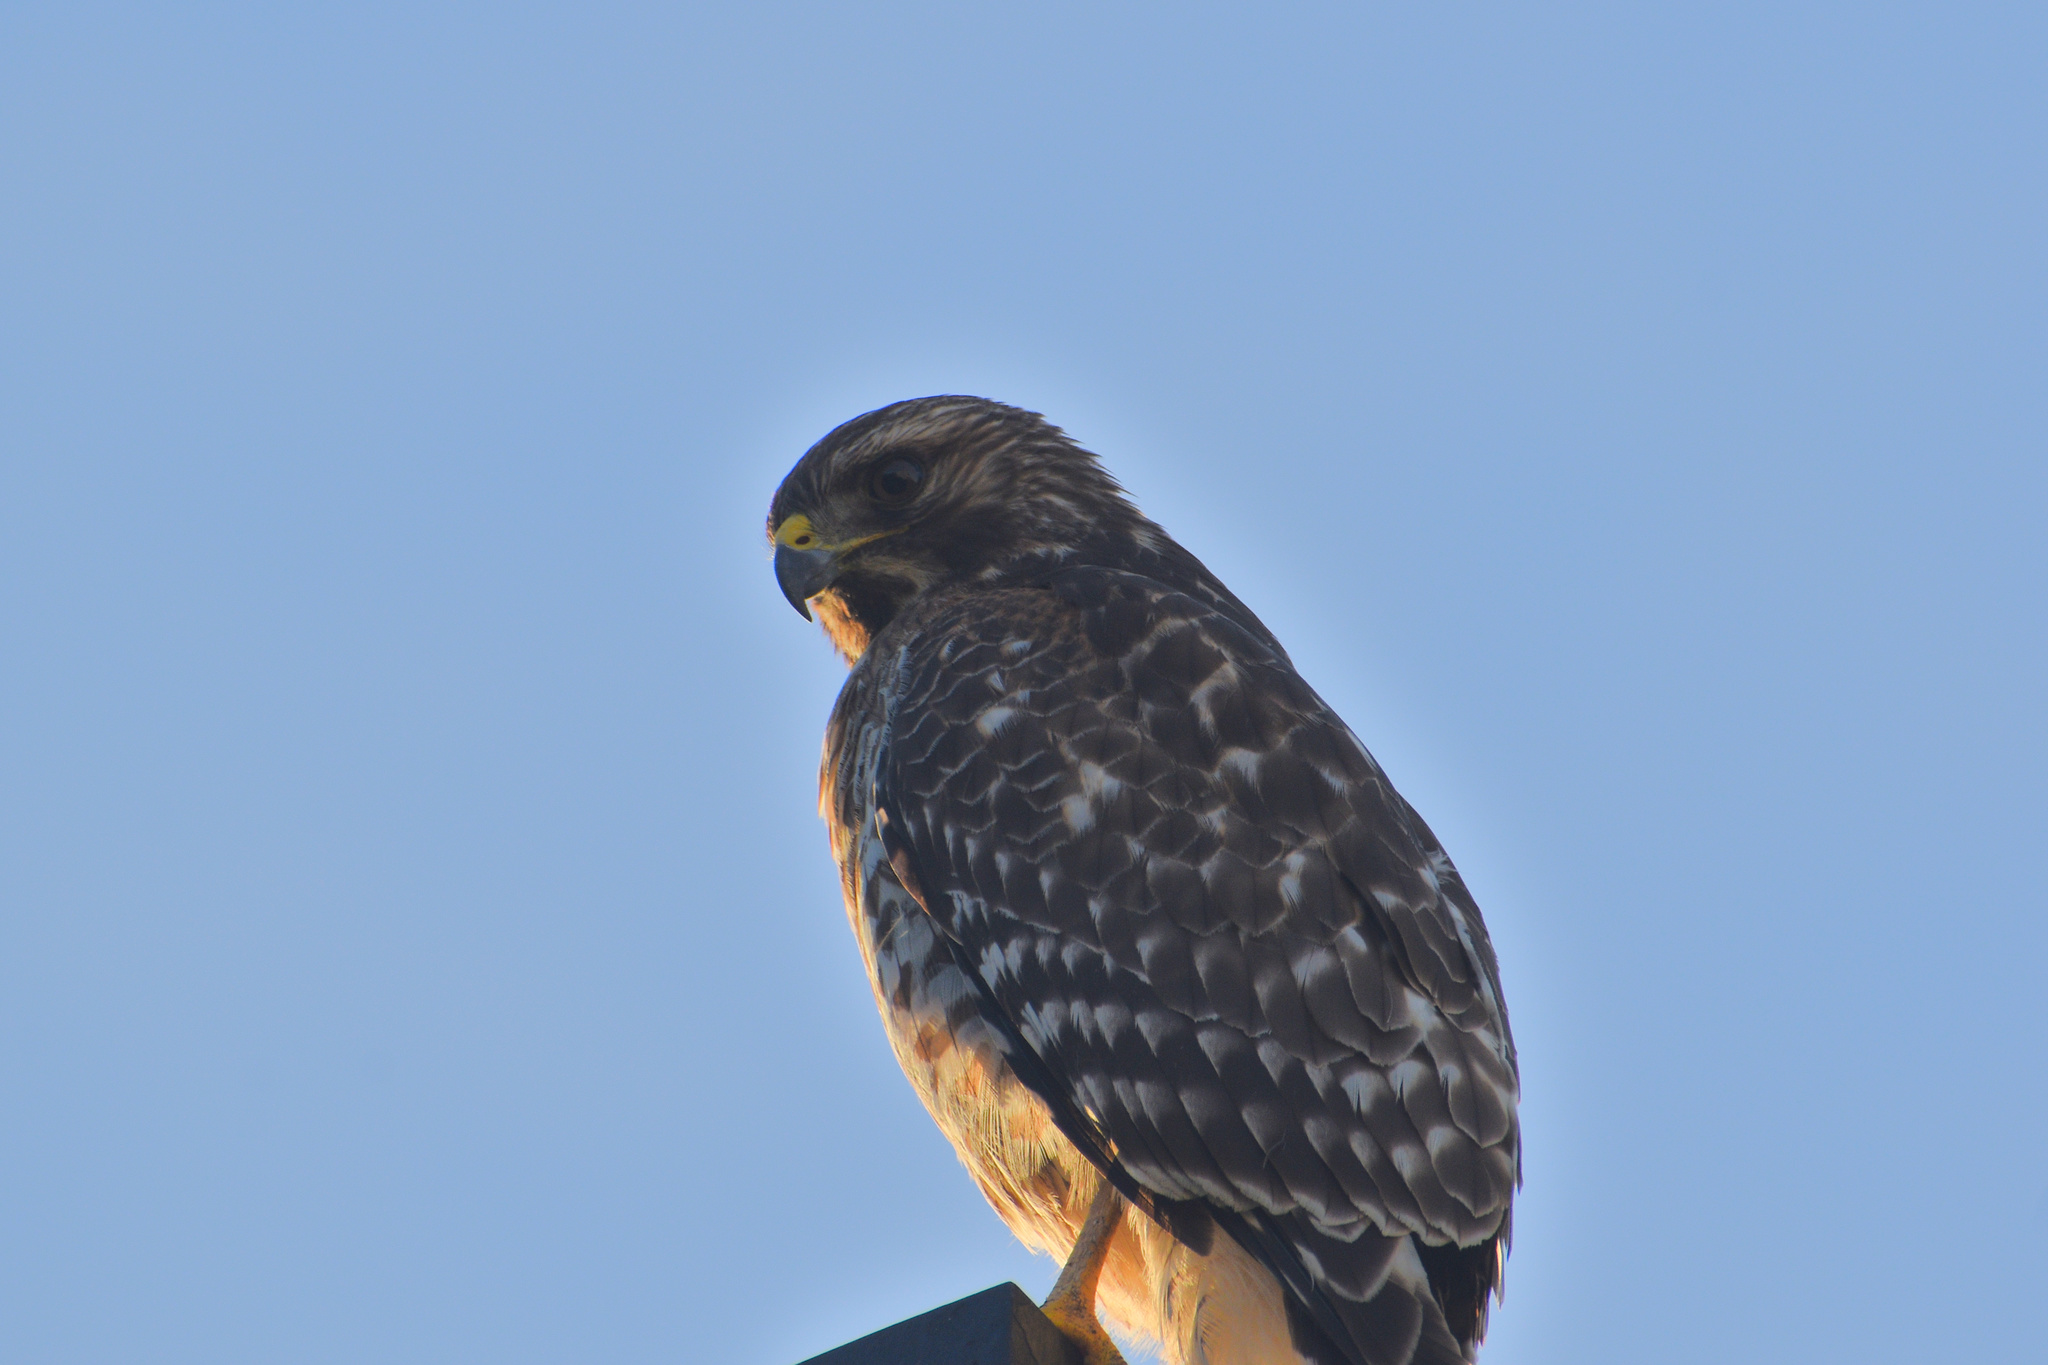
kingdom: Animalia
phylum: Chordata
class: Aves
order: Accipitriformes
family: Accipitridae
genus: Buteo
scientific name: Buteo lineatus
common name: Red-shouldered hawk
